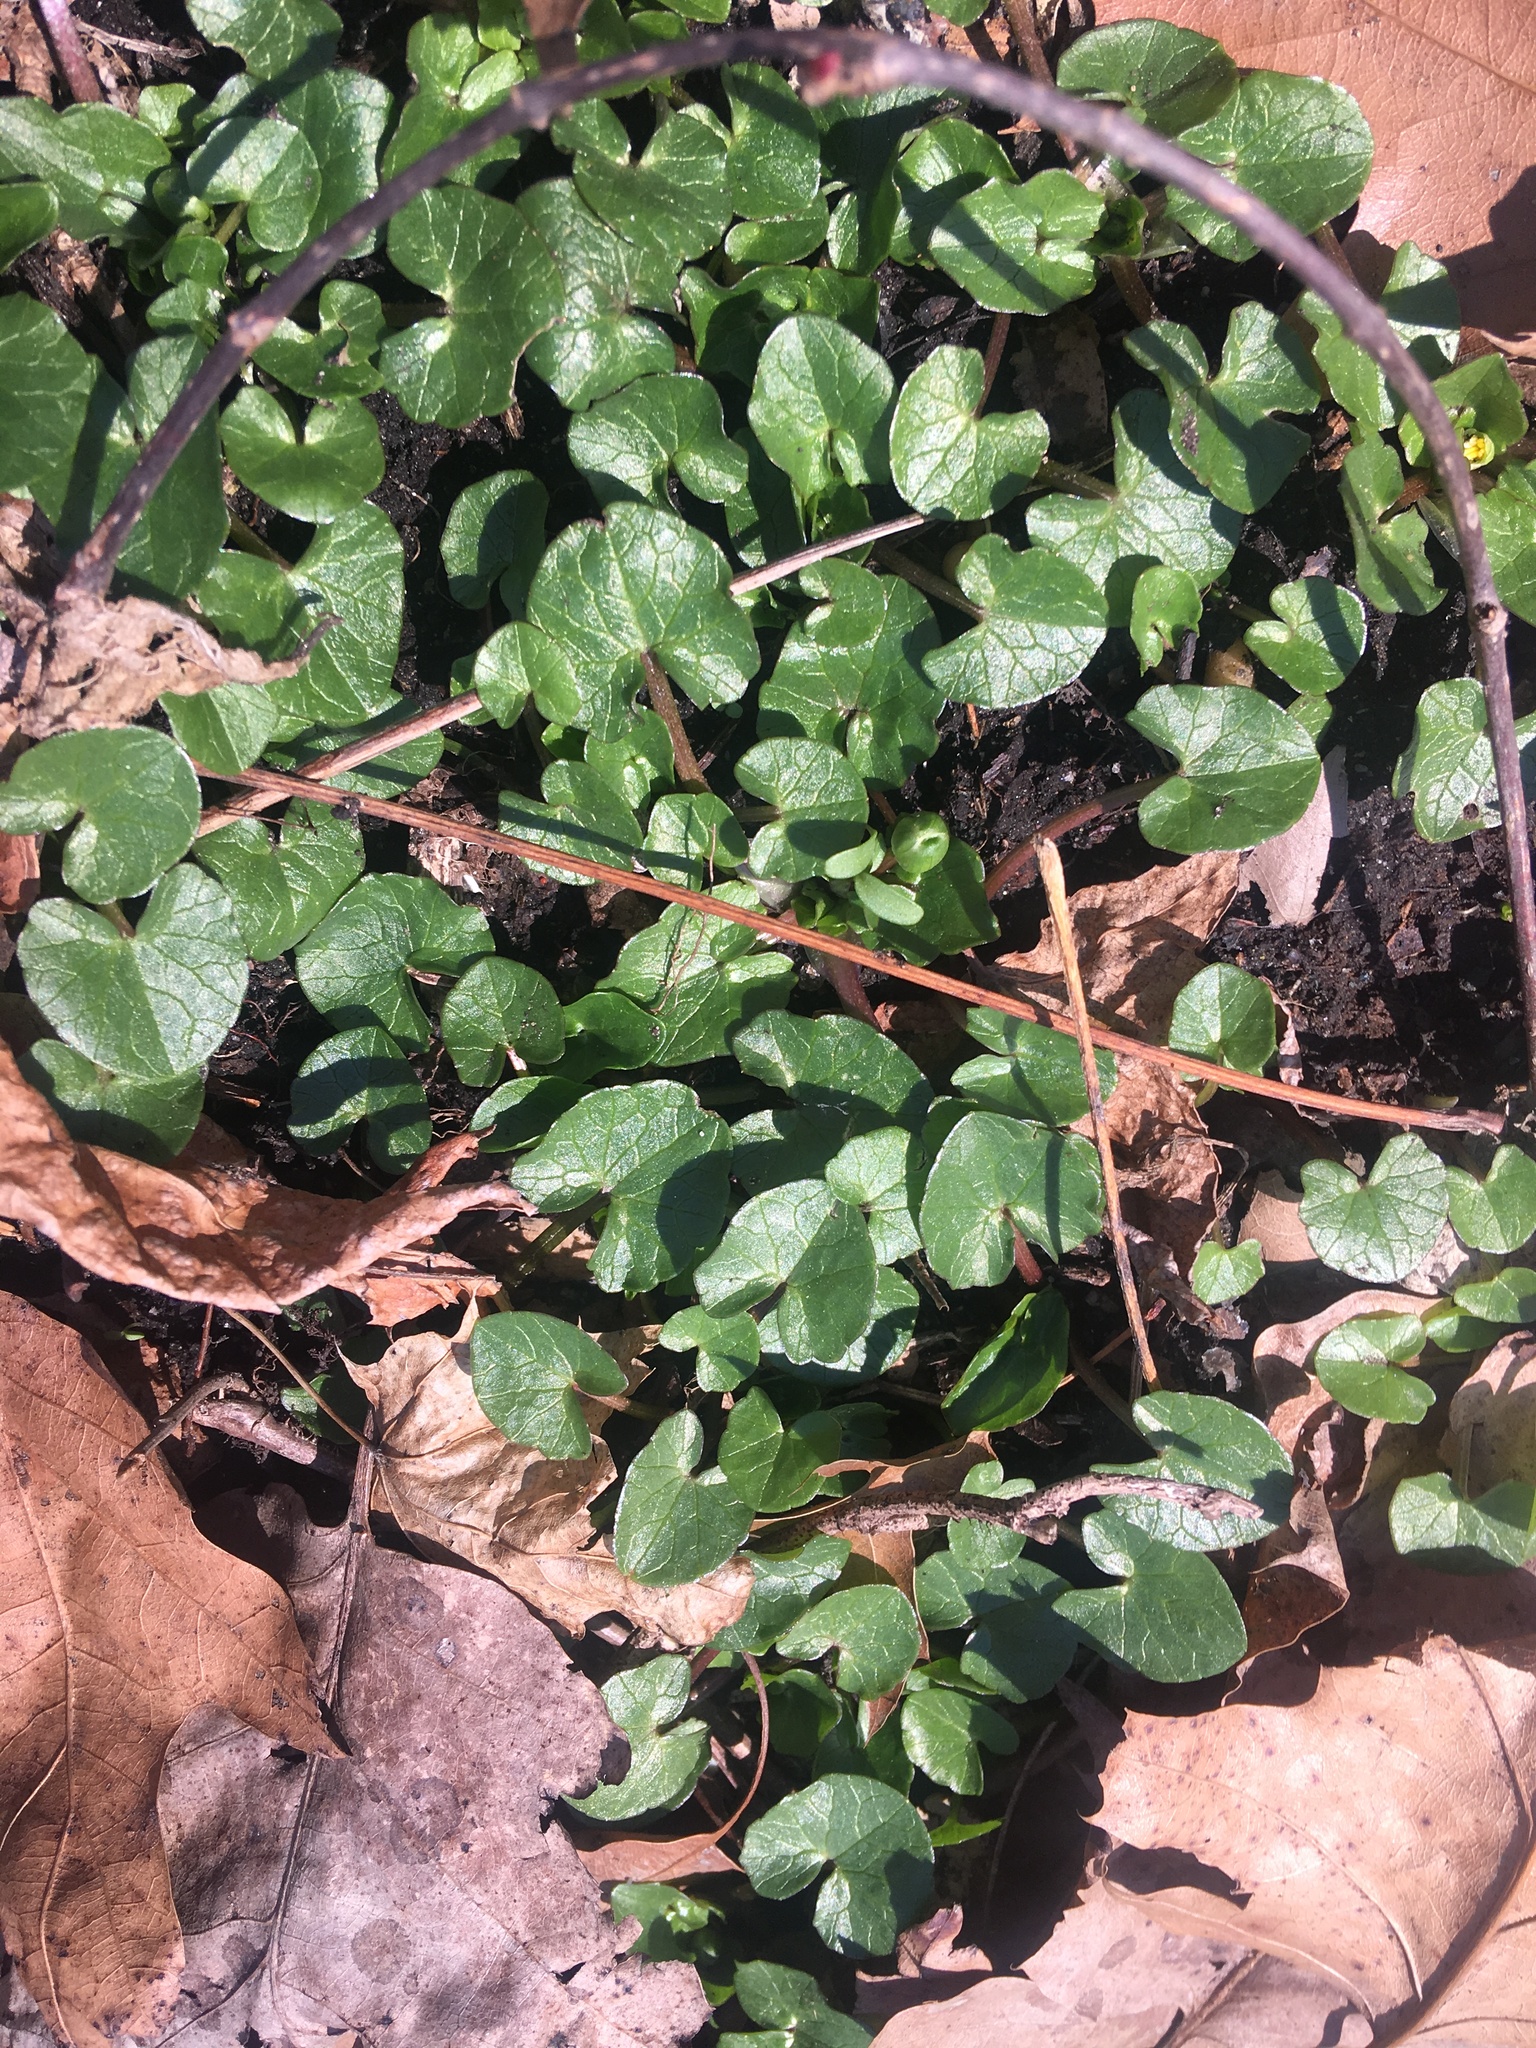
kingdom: Plantae
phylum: Tracheophyta
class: Magnoliopsida
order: Ranunculales
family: Ranunculaceae
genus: Ficaria
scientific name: Ficaria verna
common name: Lesser celandine
